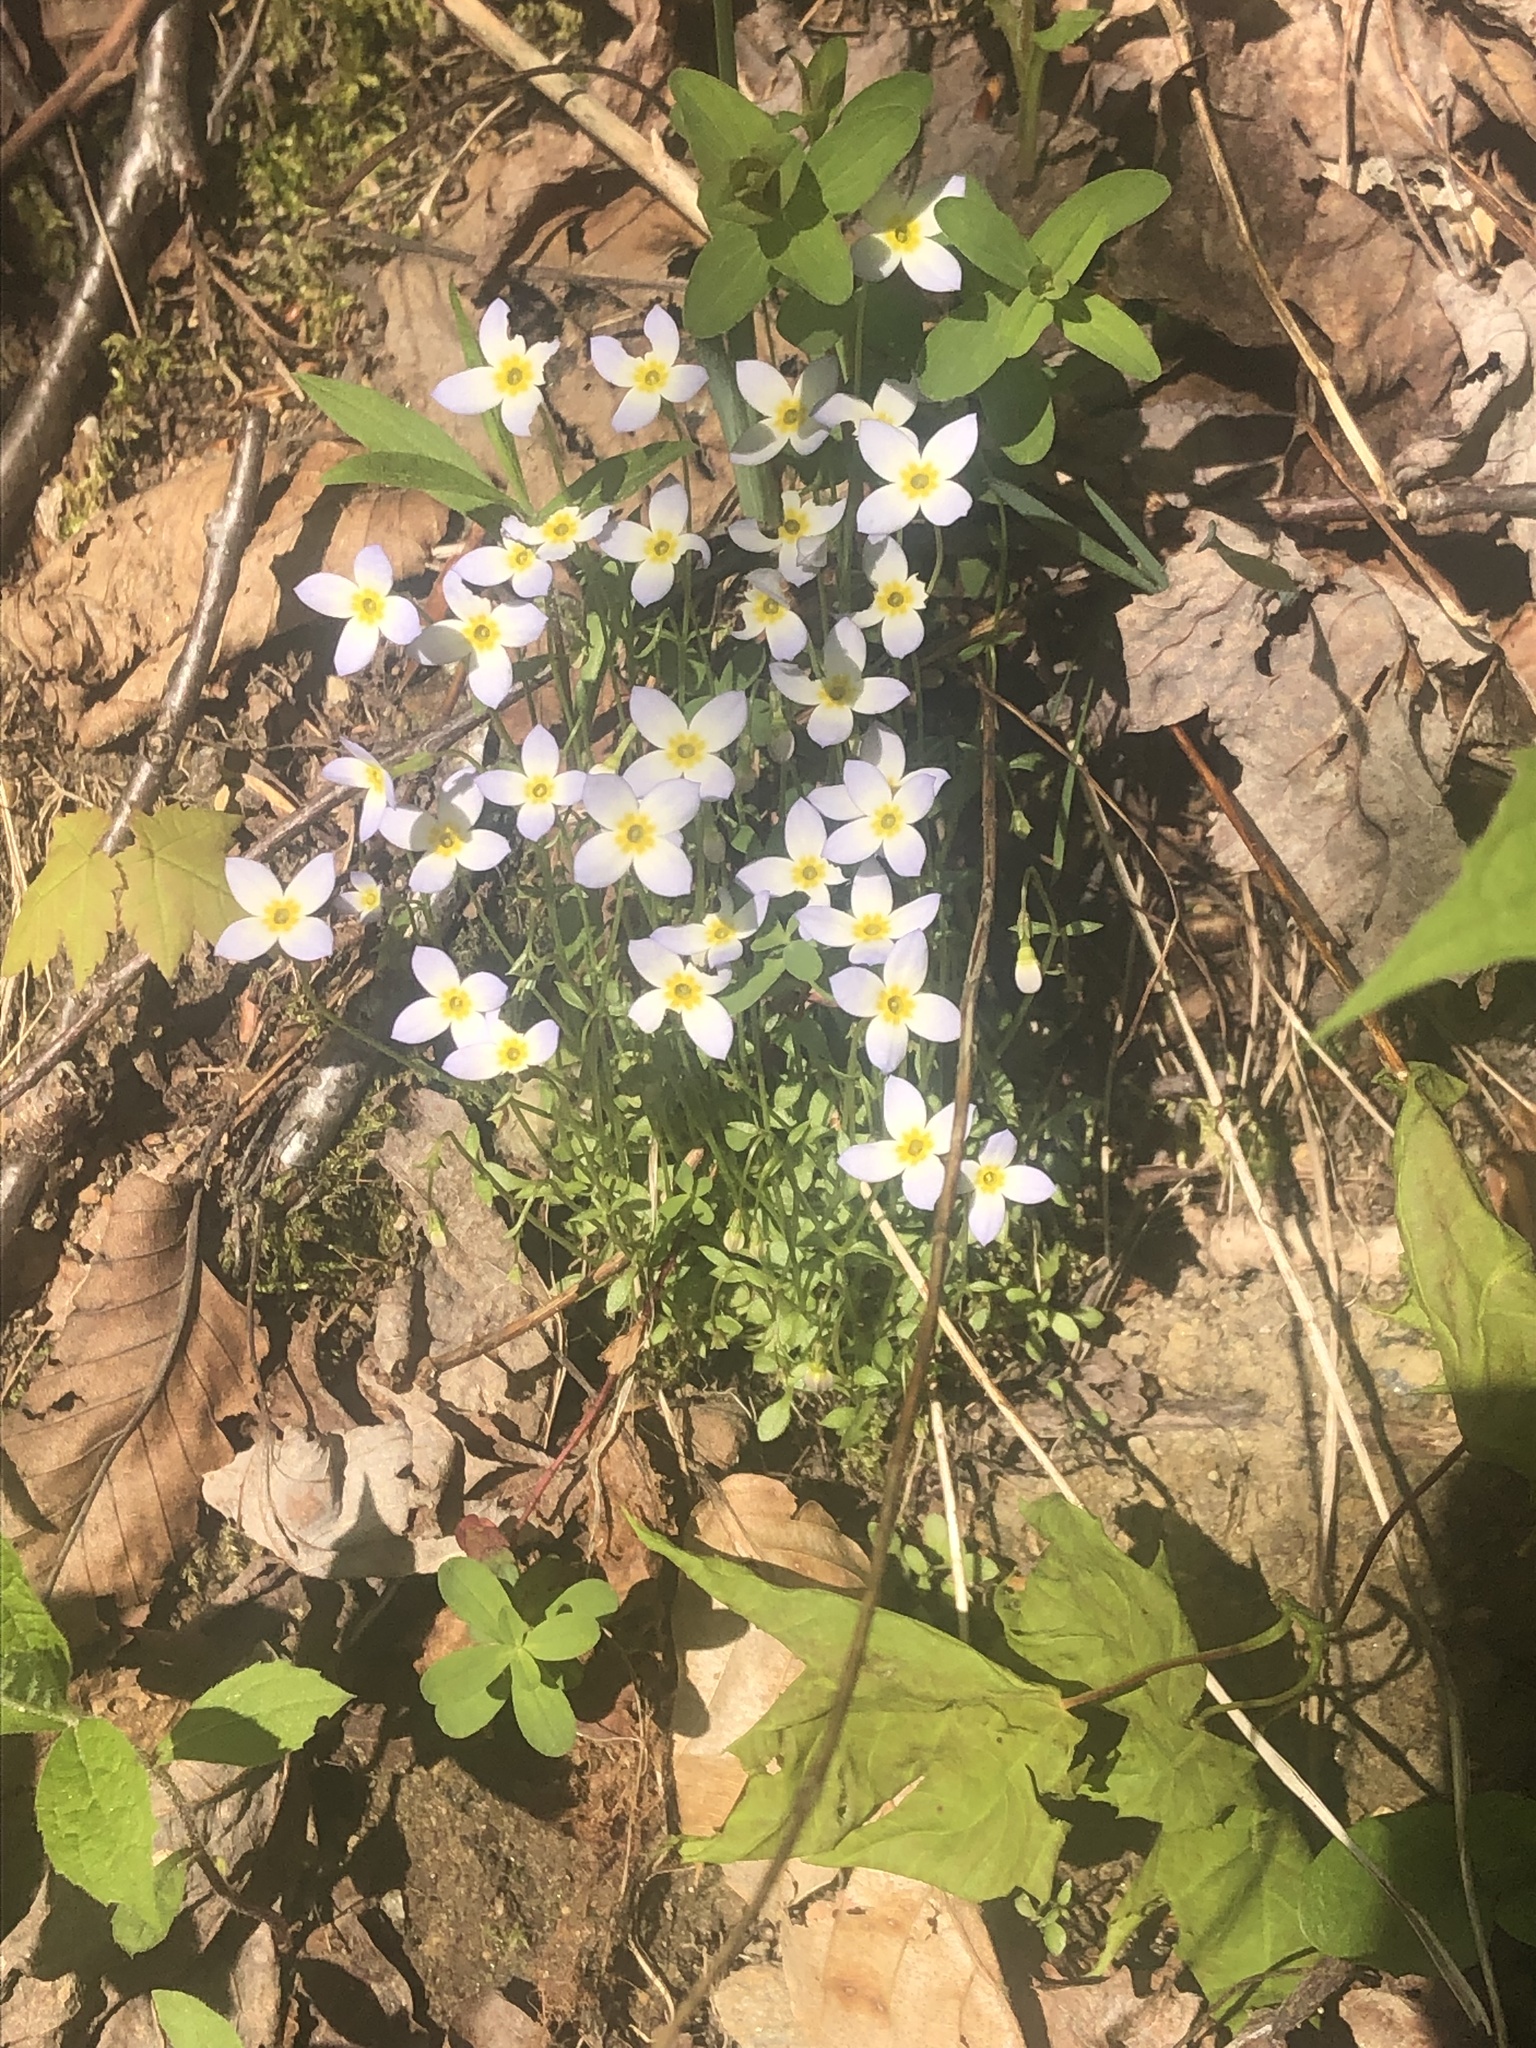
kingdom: Plantae
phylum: Tracheophyta
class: Magnoliopsida
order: Gentianales
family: Rubiaceae
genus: Houstonia
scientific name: Houstonia caerulea
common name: Bluets
